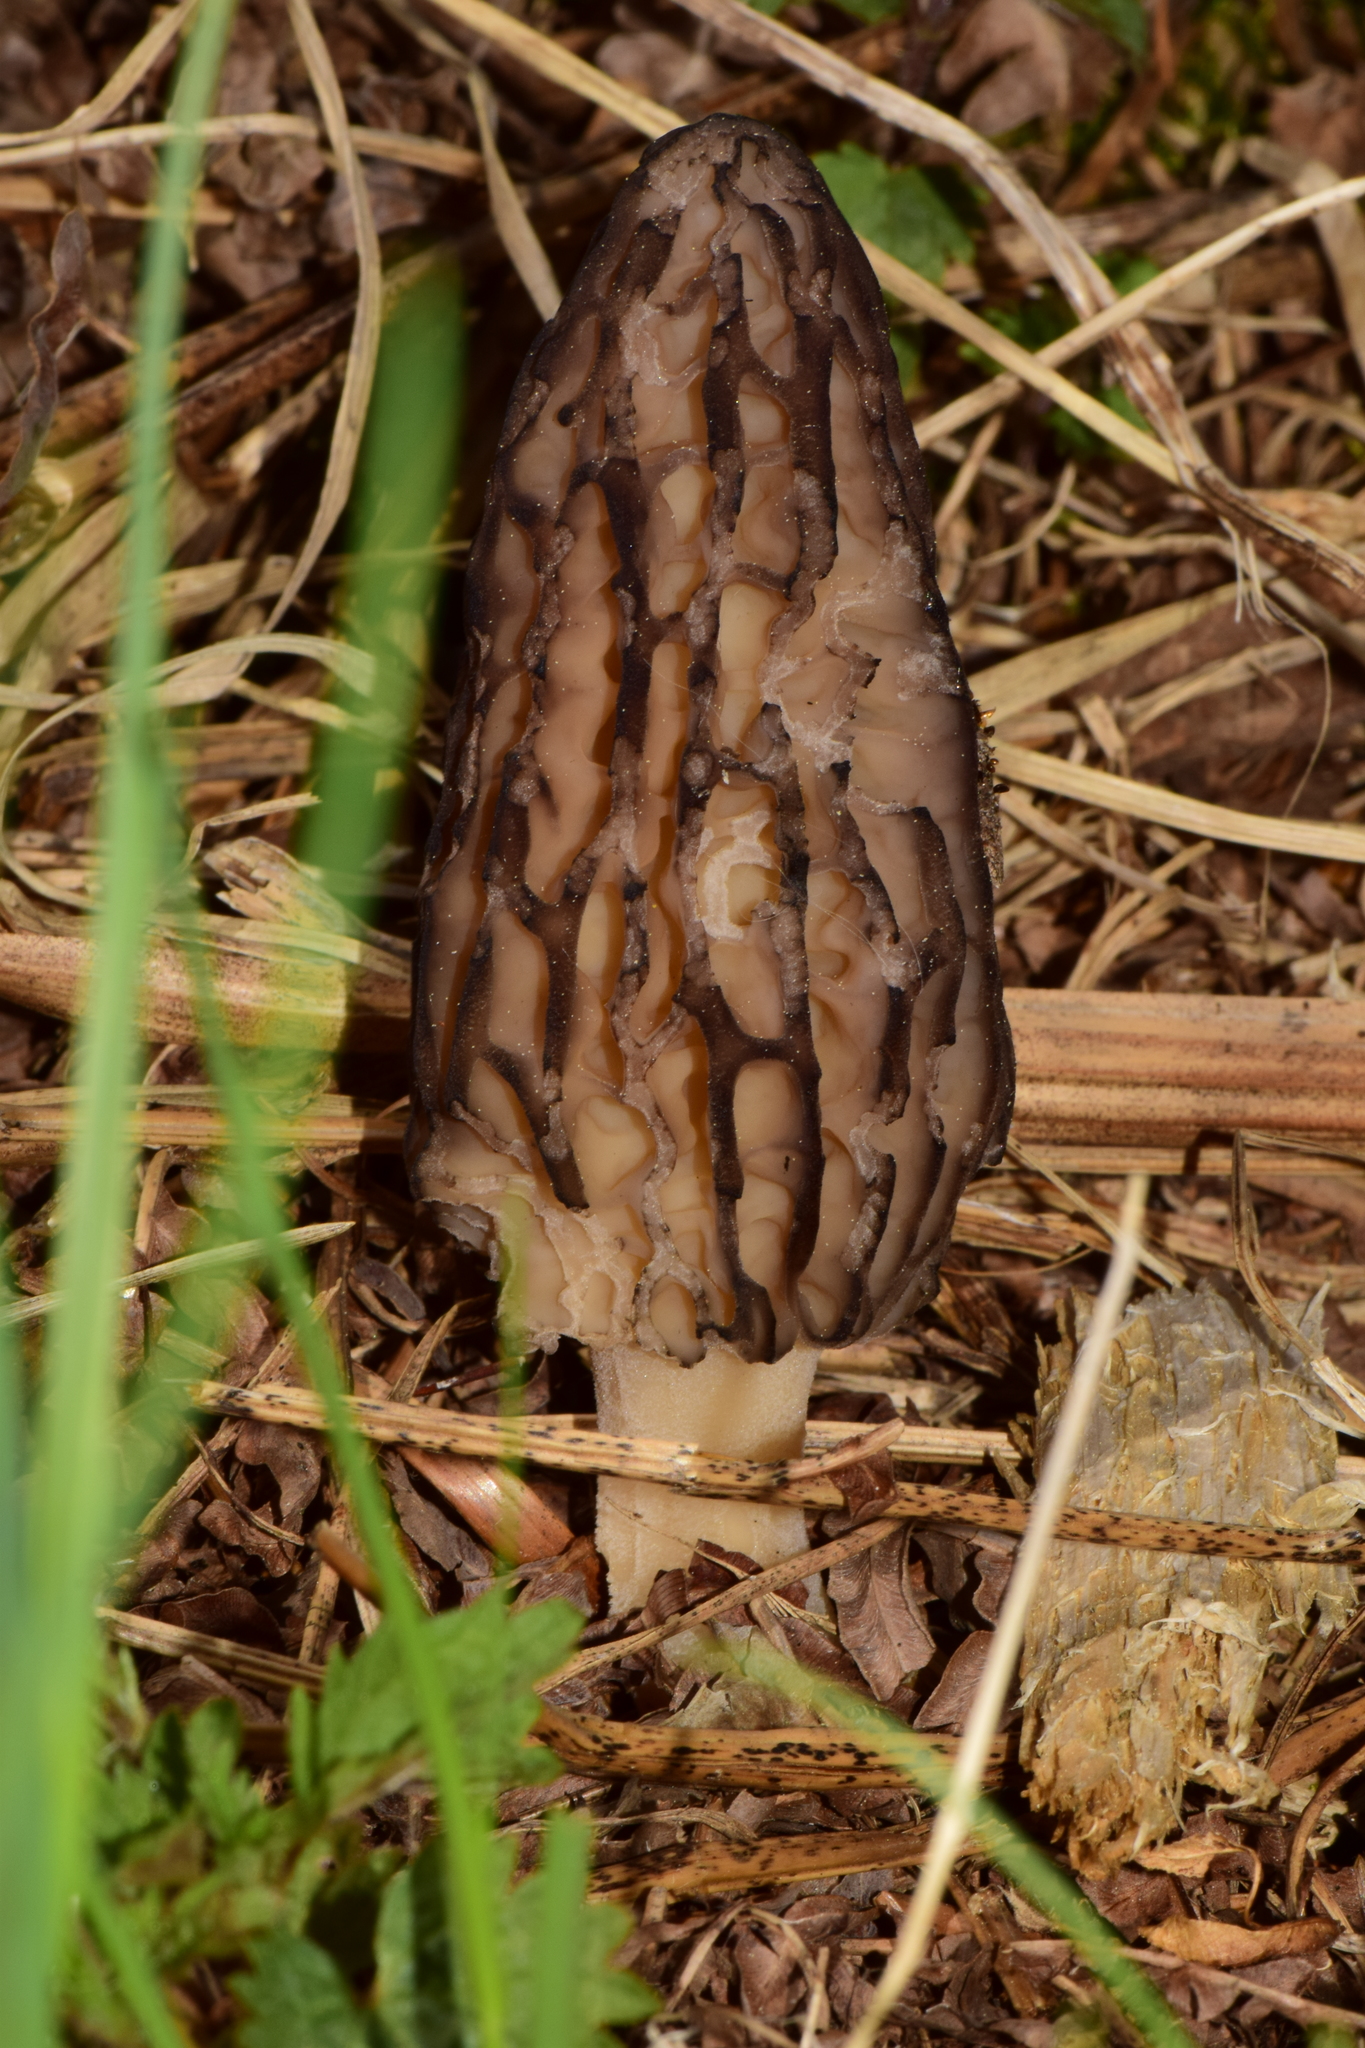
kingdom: Fungi
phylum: Ascomycota
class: Pezizomycetes
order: Pezizales
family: Morchellaceae
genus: Morchella
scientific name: Morchella
